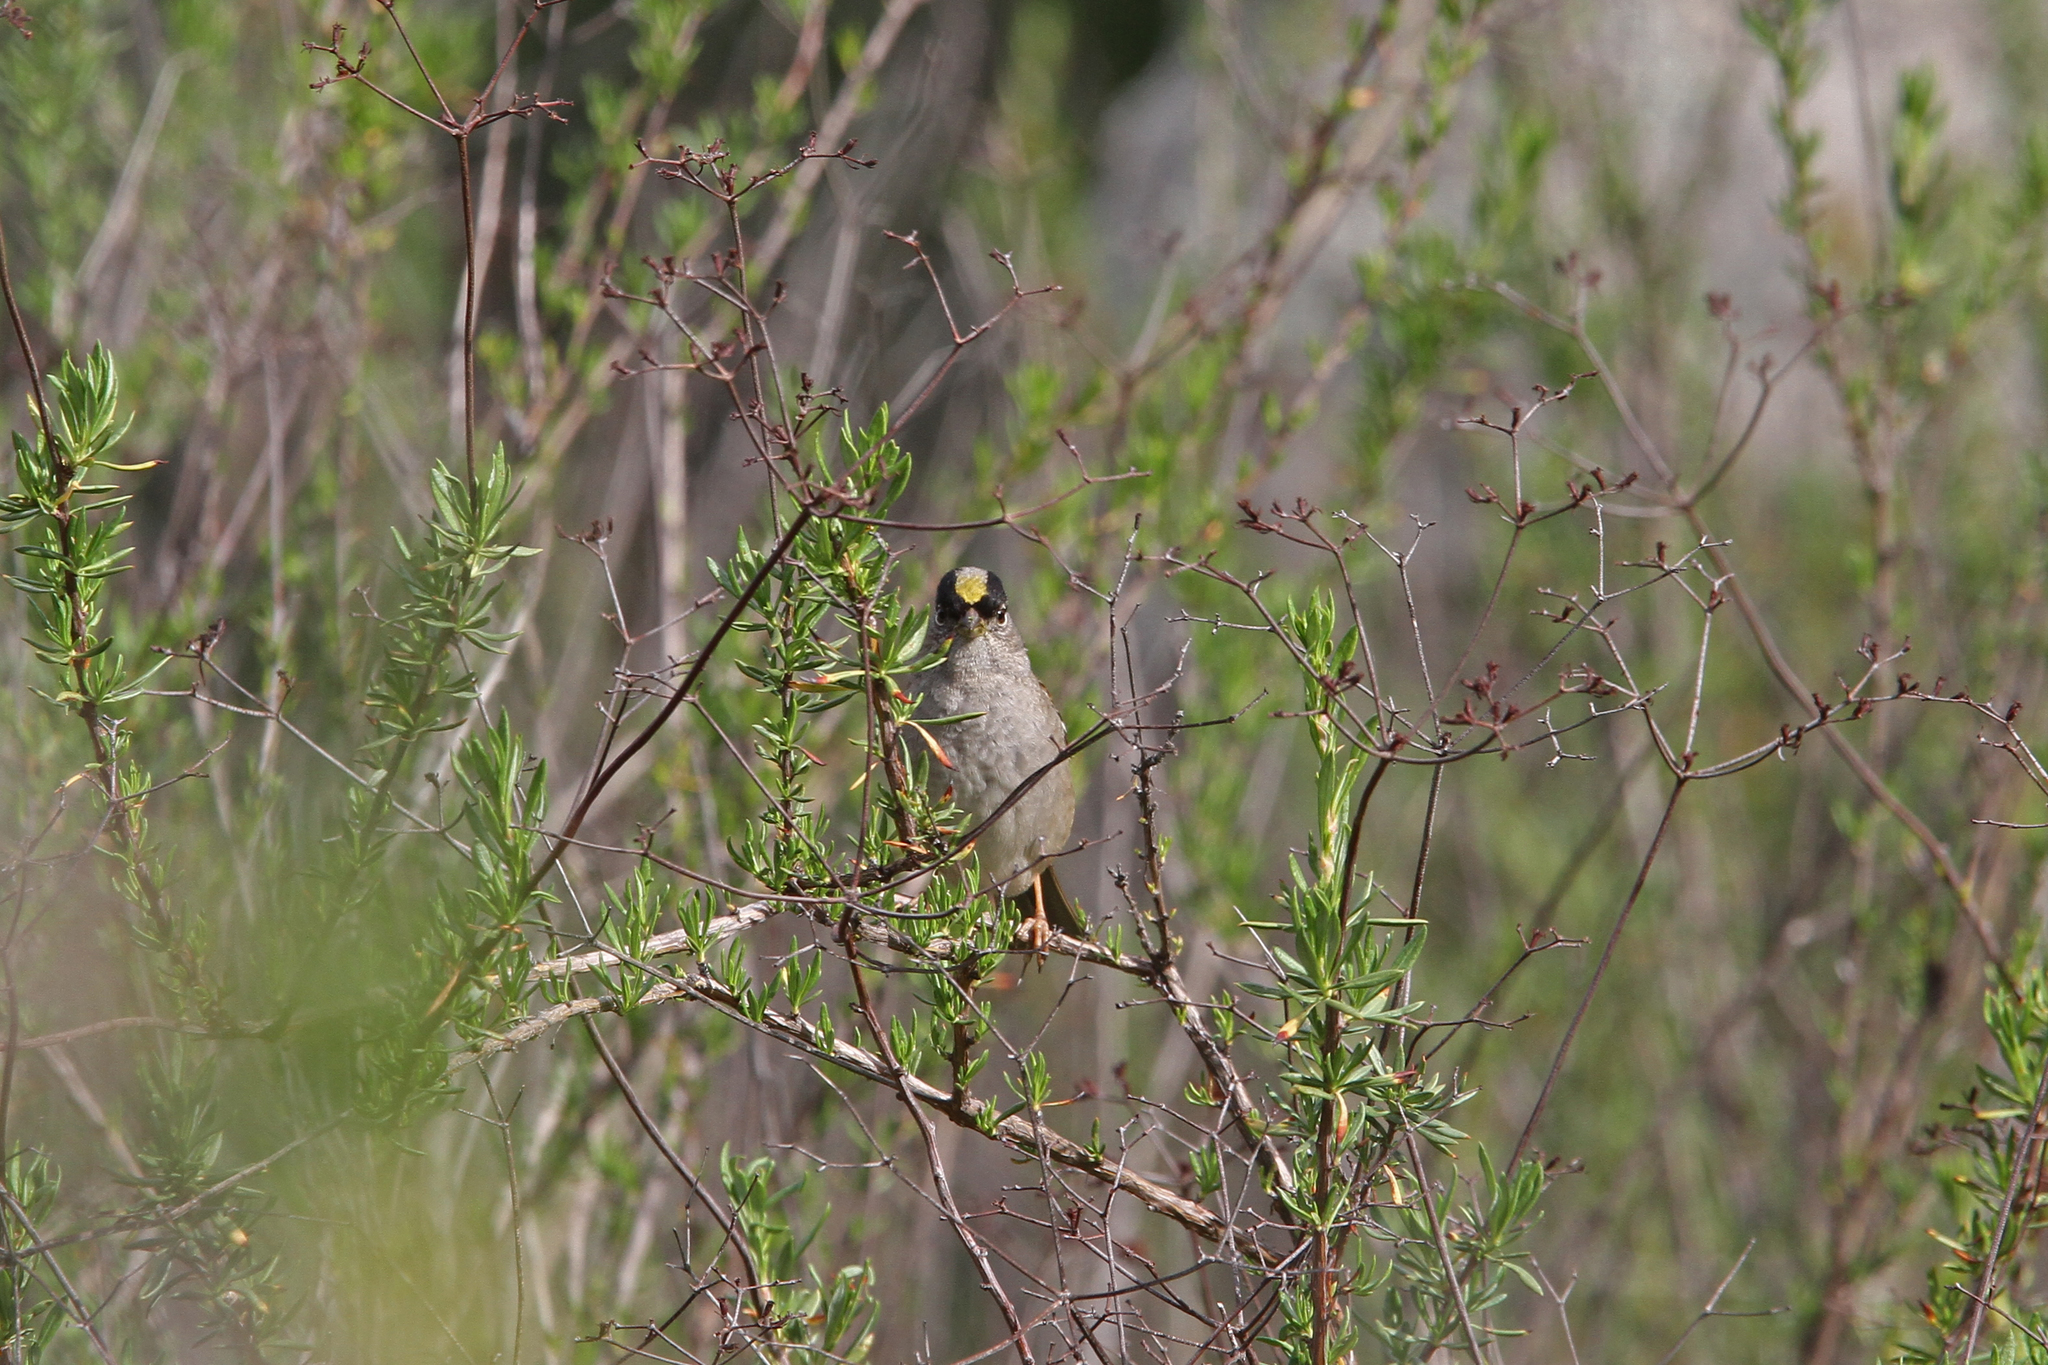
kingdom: Animalia
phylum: Chordata
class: Aves
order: Passeriformes
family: Passerellidae
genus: Zonotrichia
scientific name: Zonotrichia atricapilla
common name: Golden-crowned sparrow
